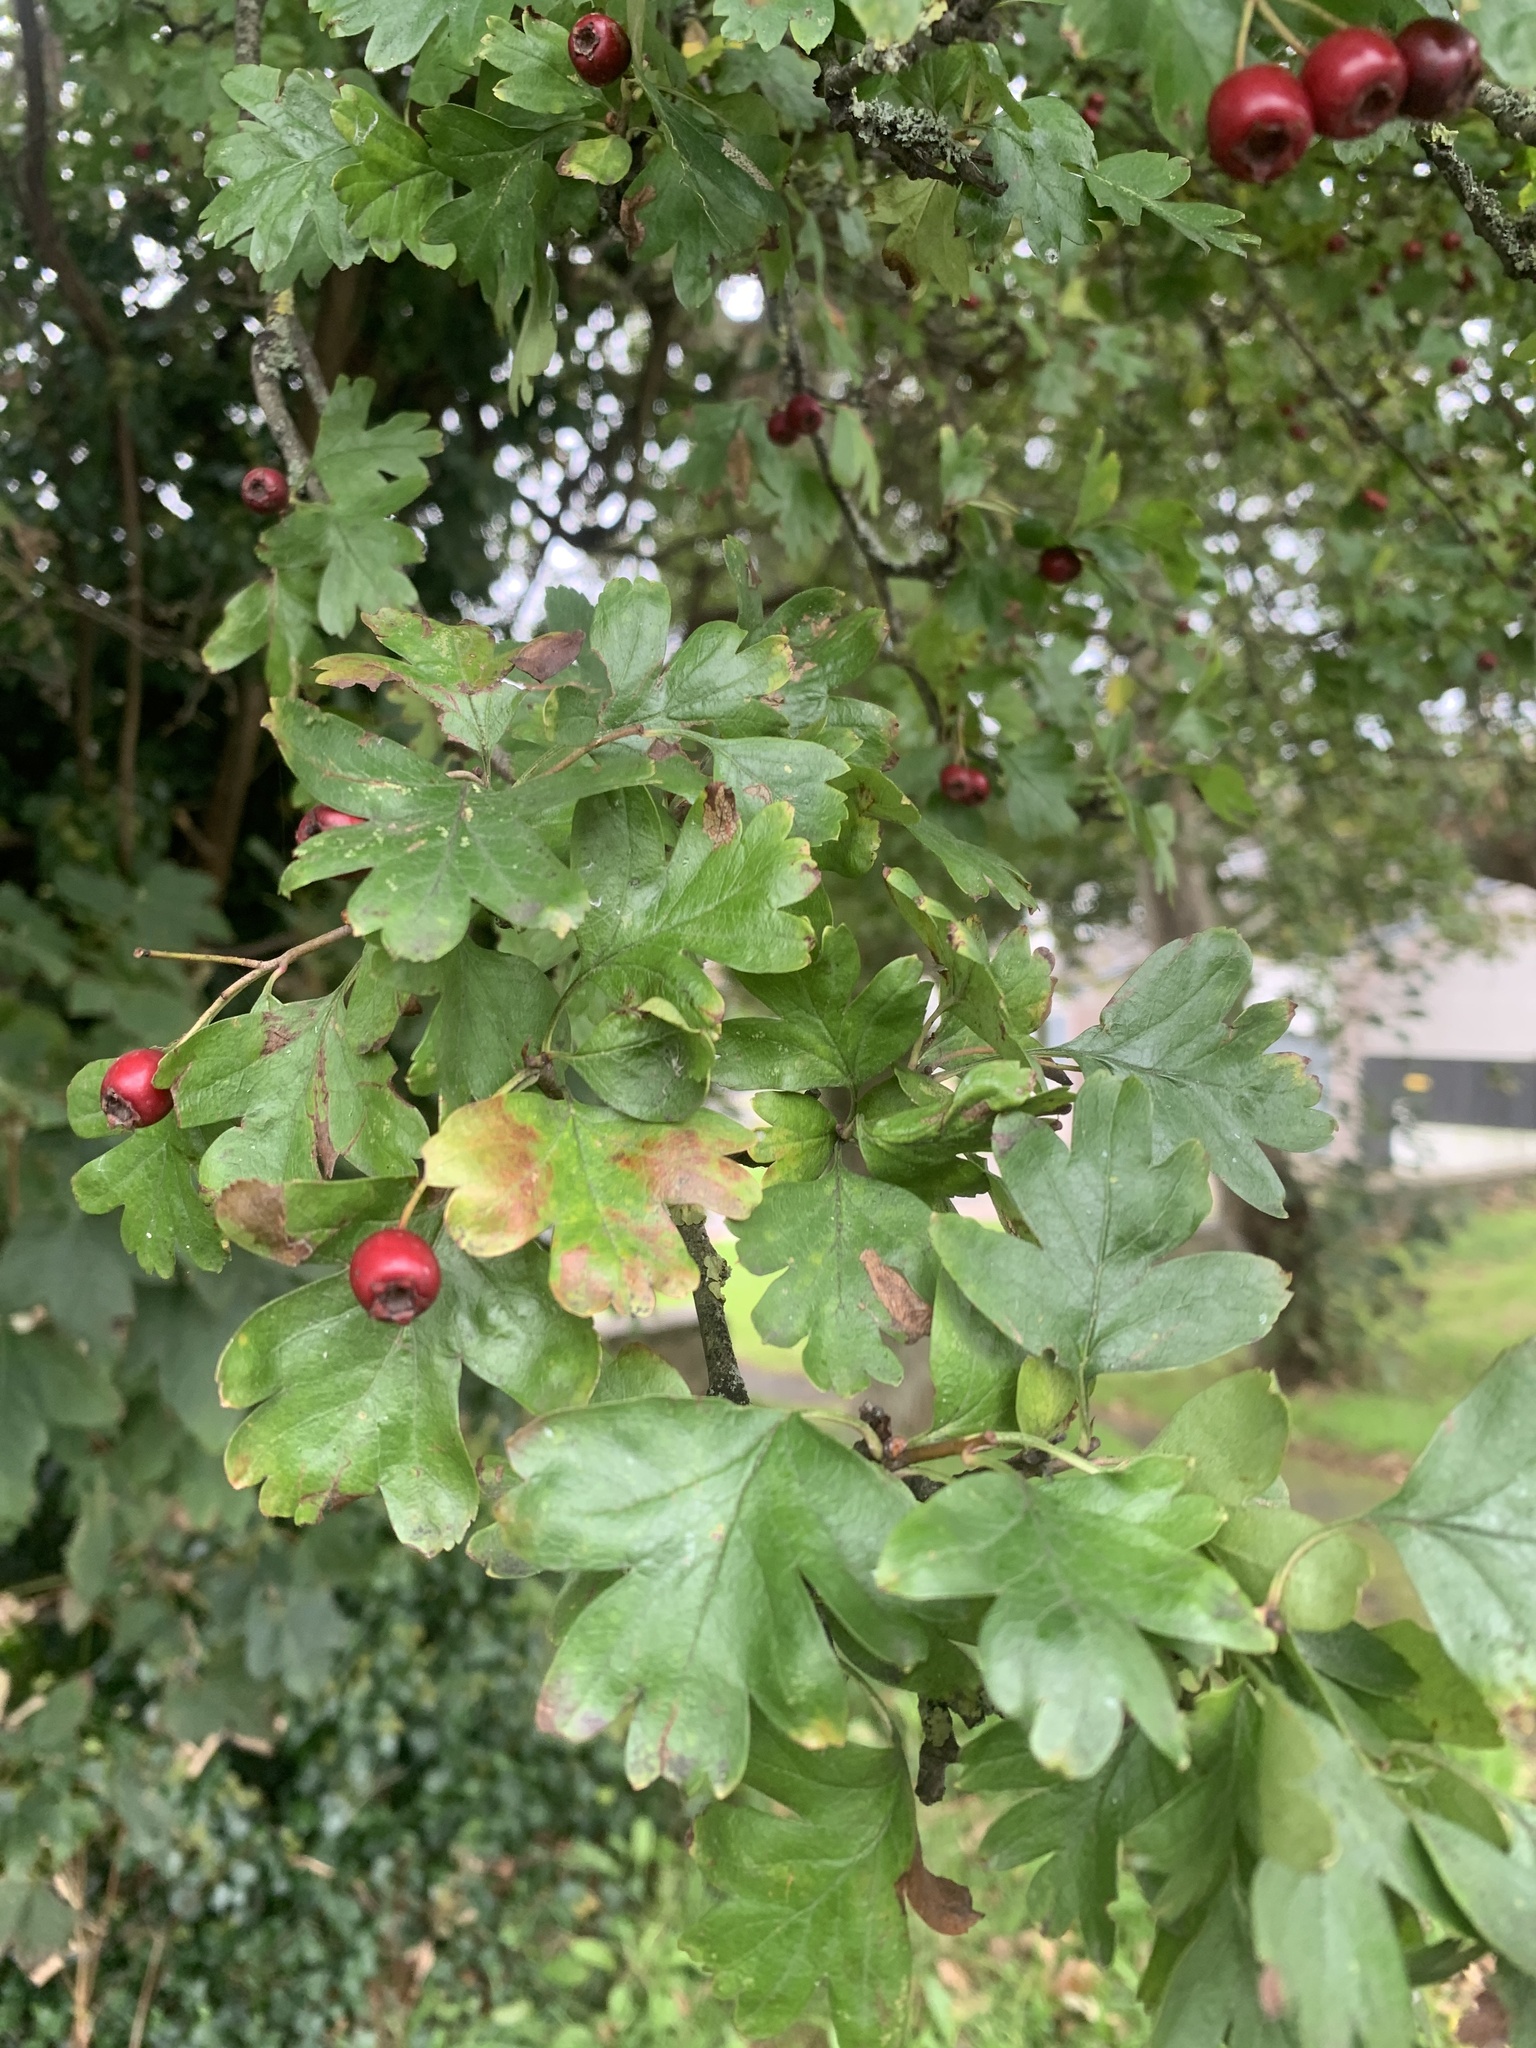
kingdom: Plantae
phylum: Tracheophyta
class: Magnoliopsida
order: Rosales
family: Rosaceae
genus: Crataegus
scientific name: Crataegus monogyna
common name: Hawthorn
